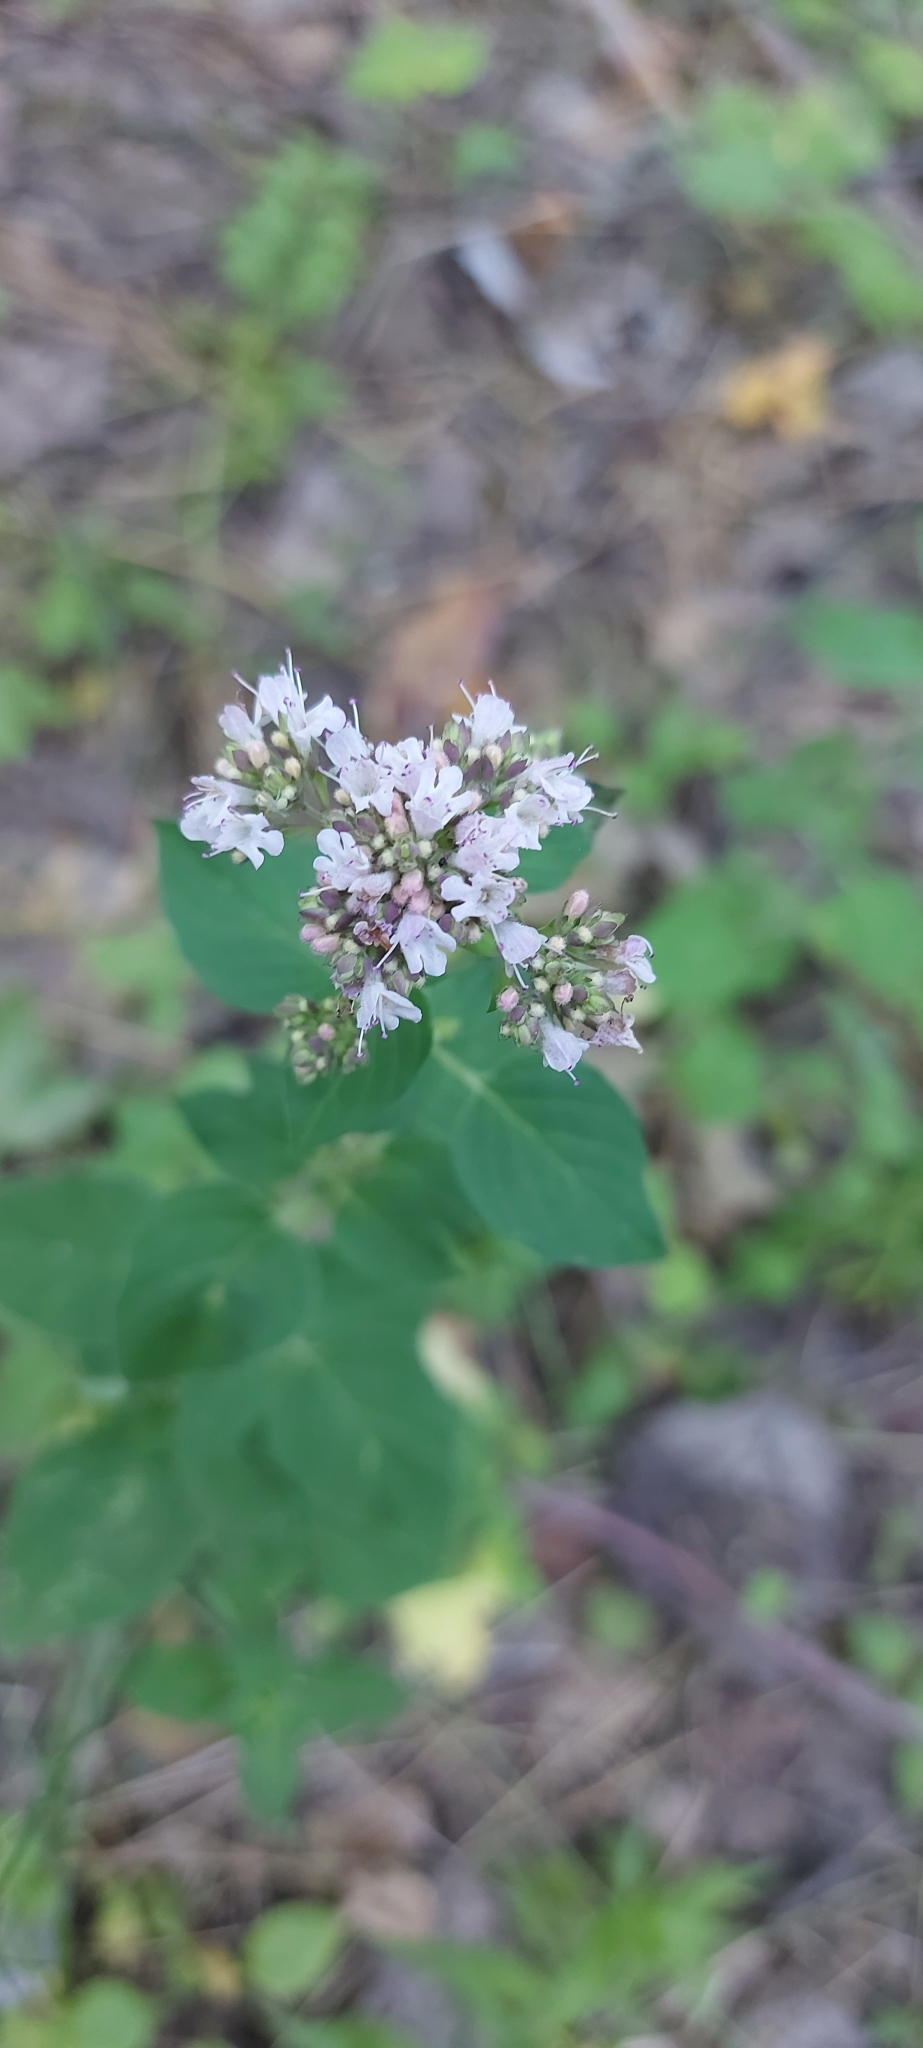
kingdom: Plantae
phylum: Tracheophyta
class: Magnoliopsida
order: Lamiales
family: Lamiaceae
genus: Origanum
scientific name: Origanum vulgare
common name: Wild marjoram
